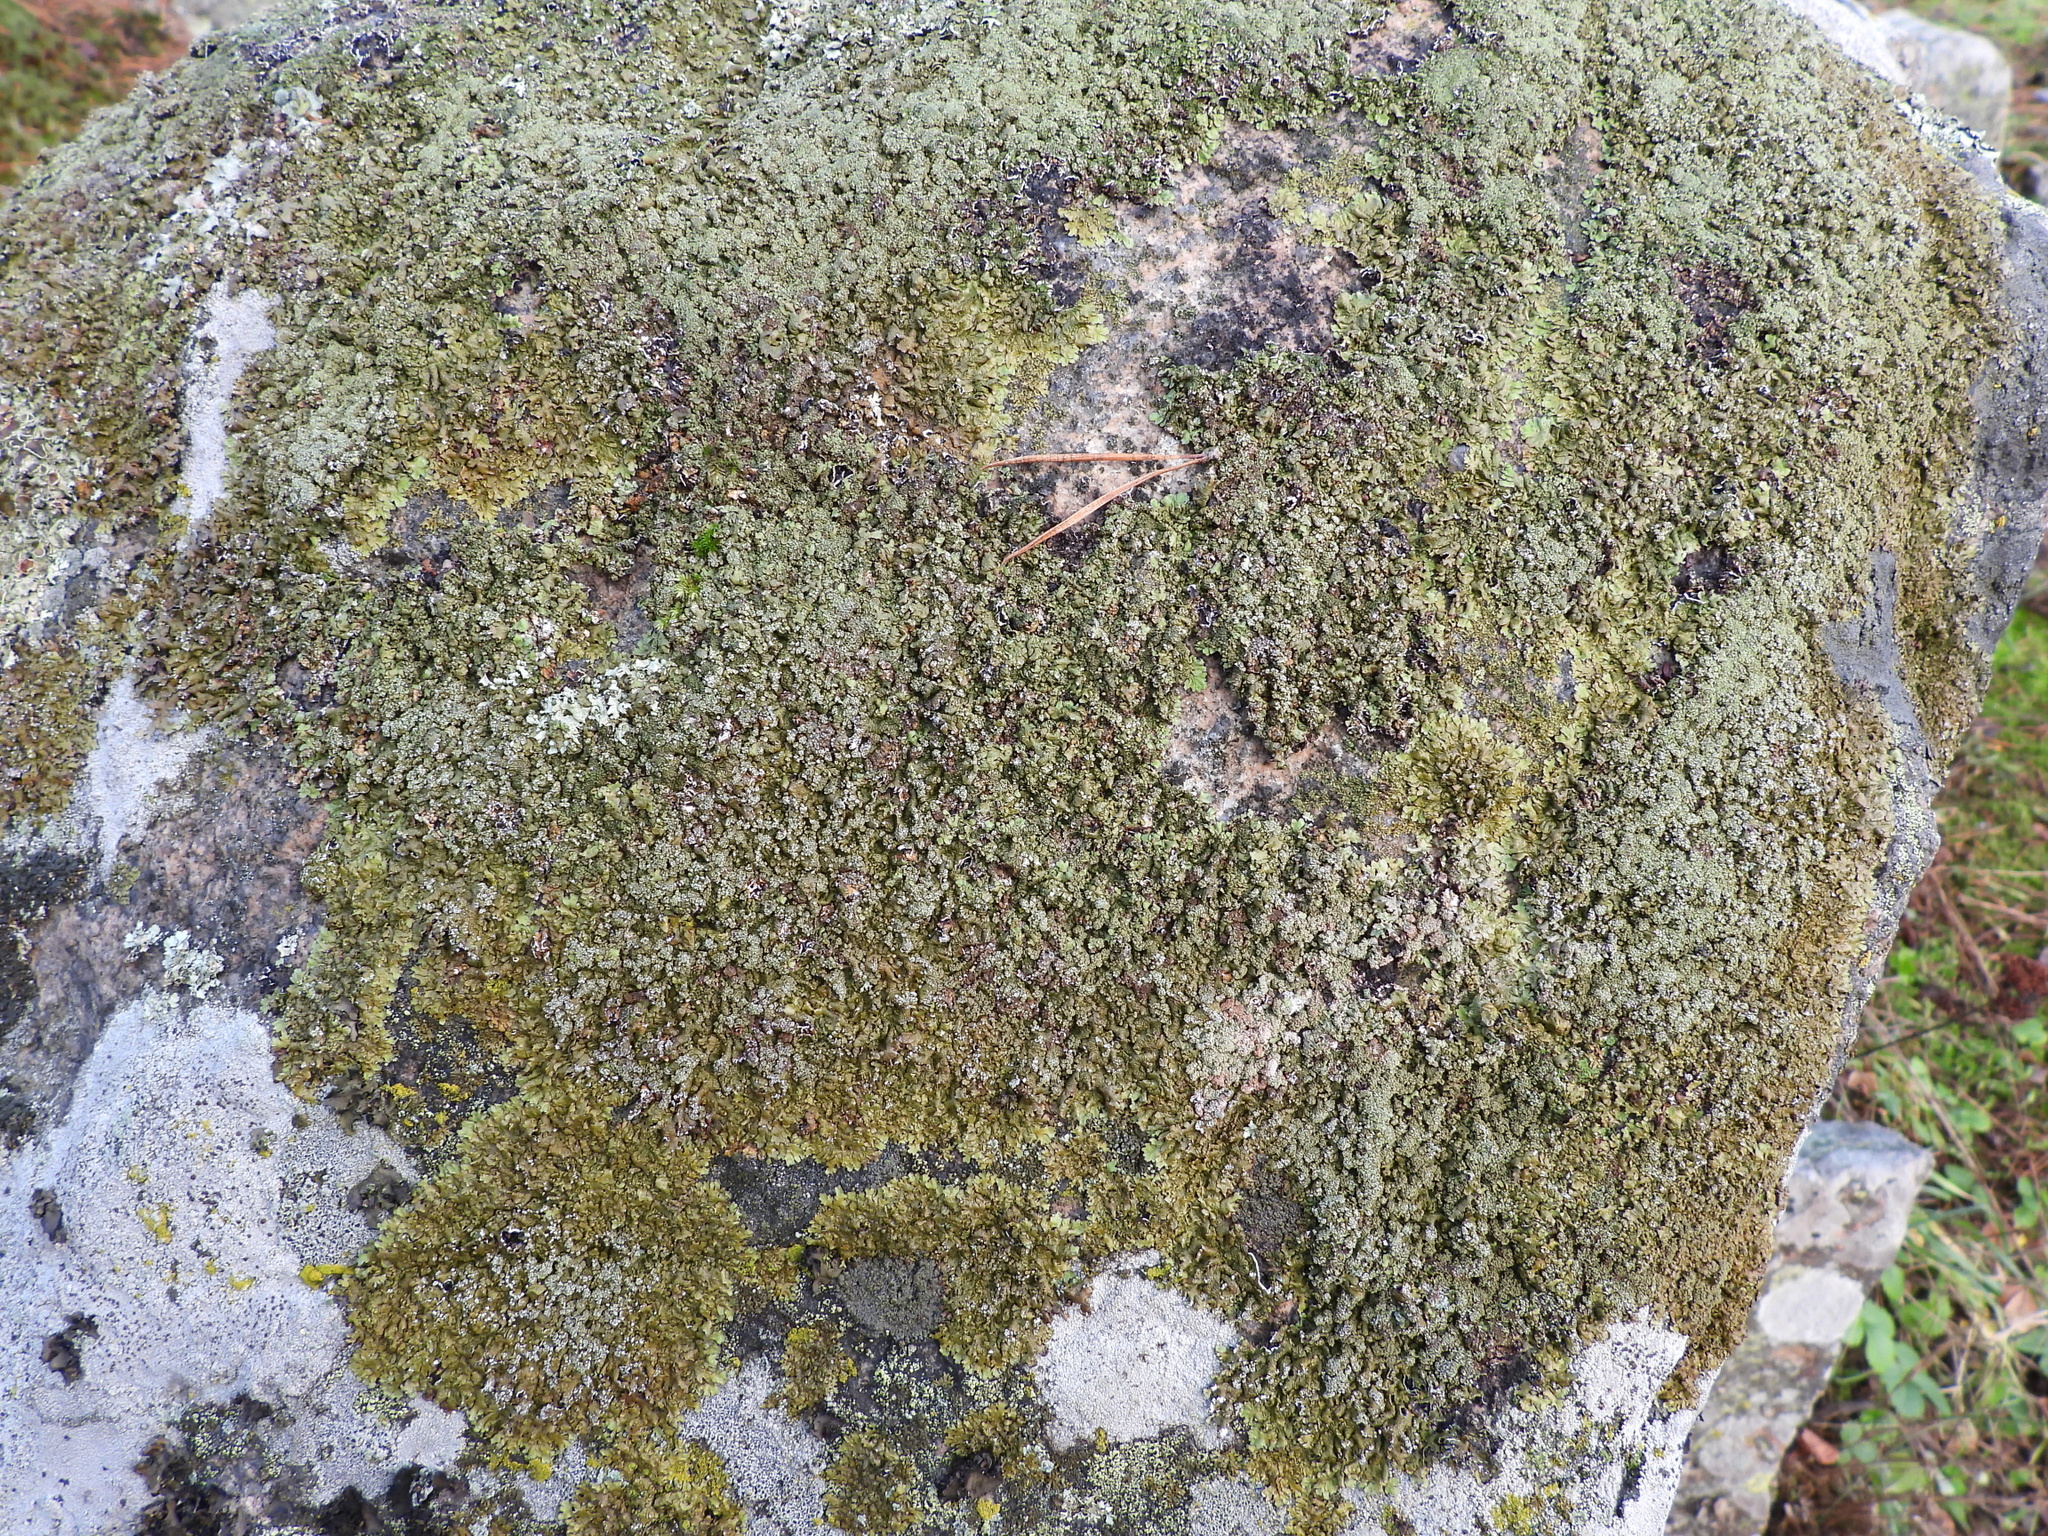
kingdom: Fungi
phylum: Ascomycota
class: Lecanoromycetes
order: Lecanorales
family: Parmeliaceae
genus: Xanthoparmelia
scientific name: Xanthoparmelia loxodes
